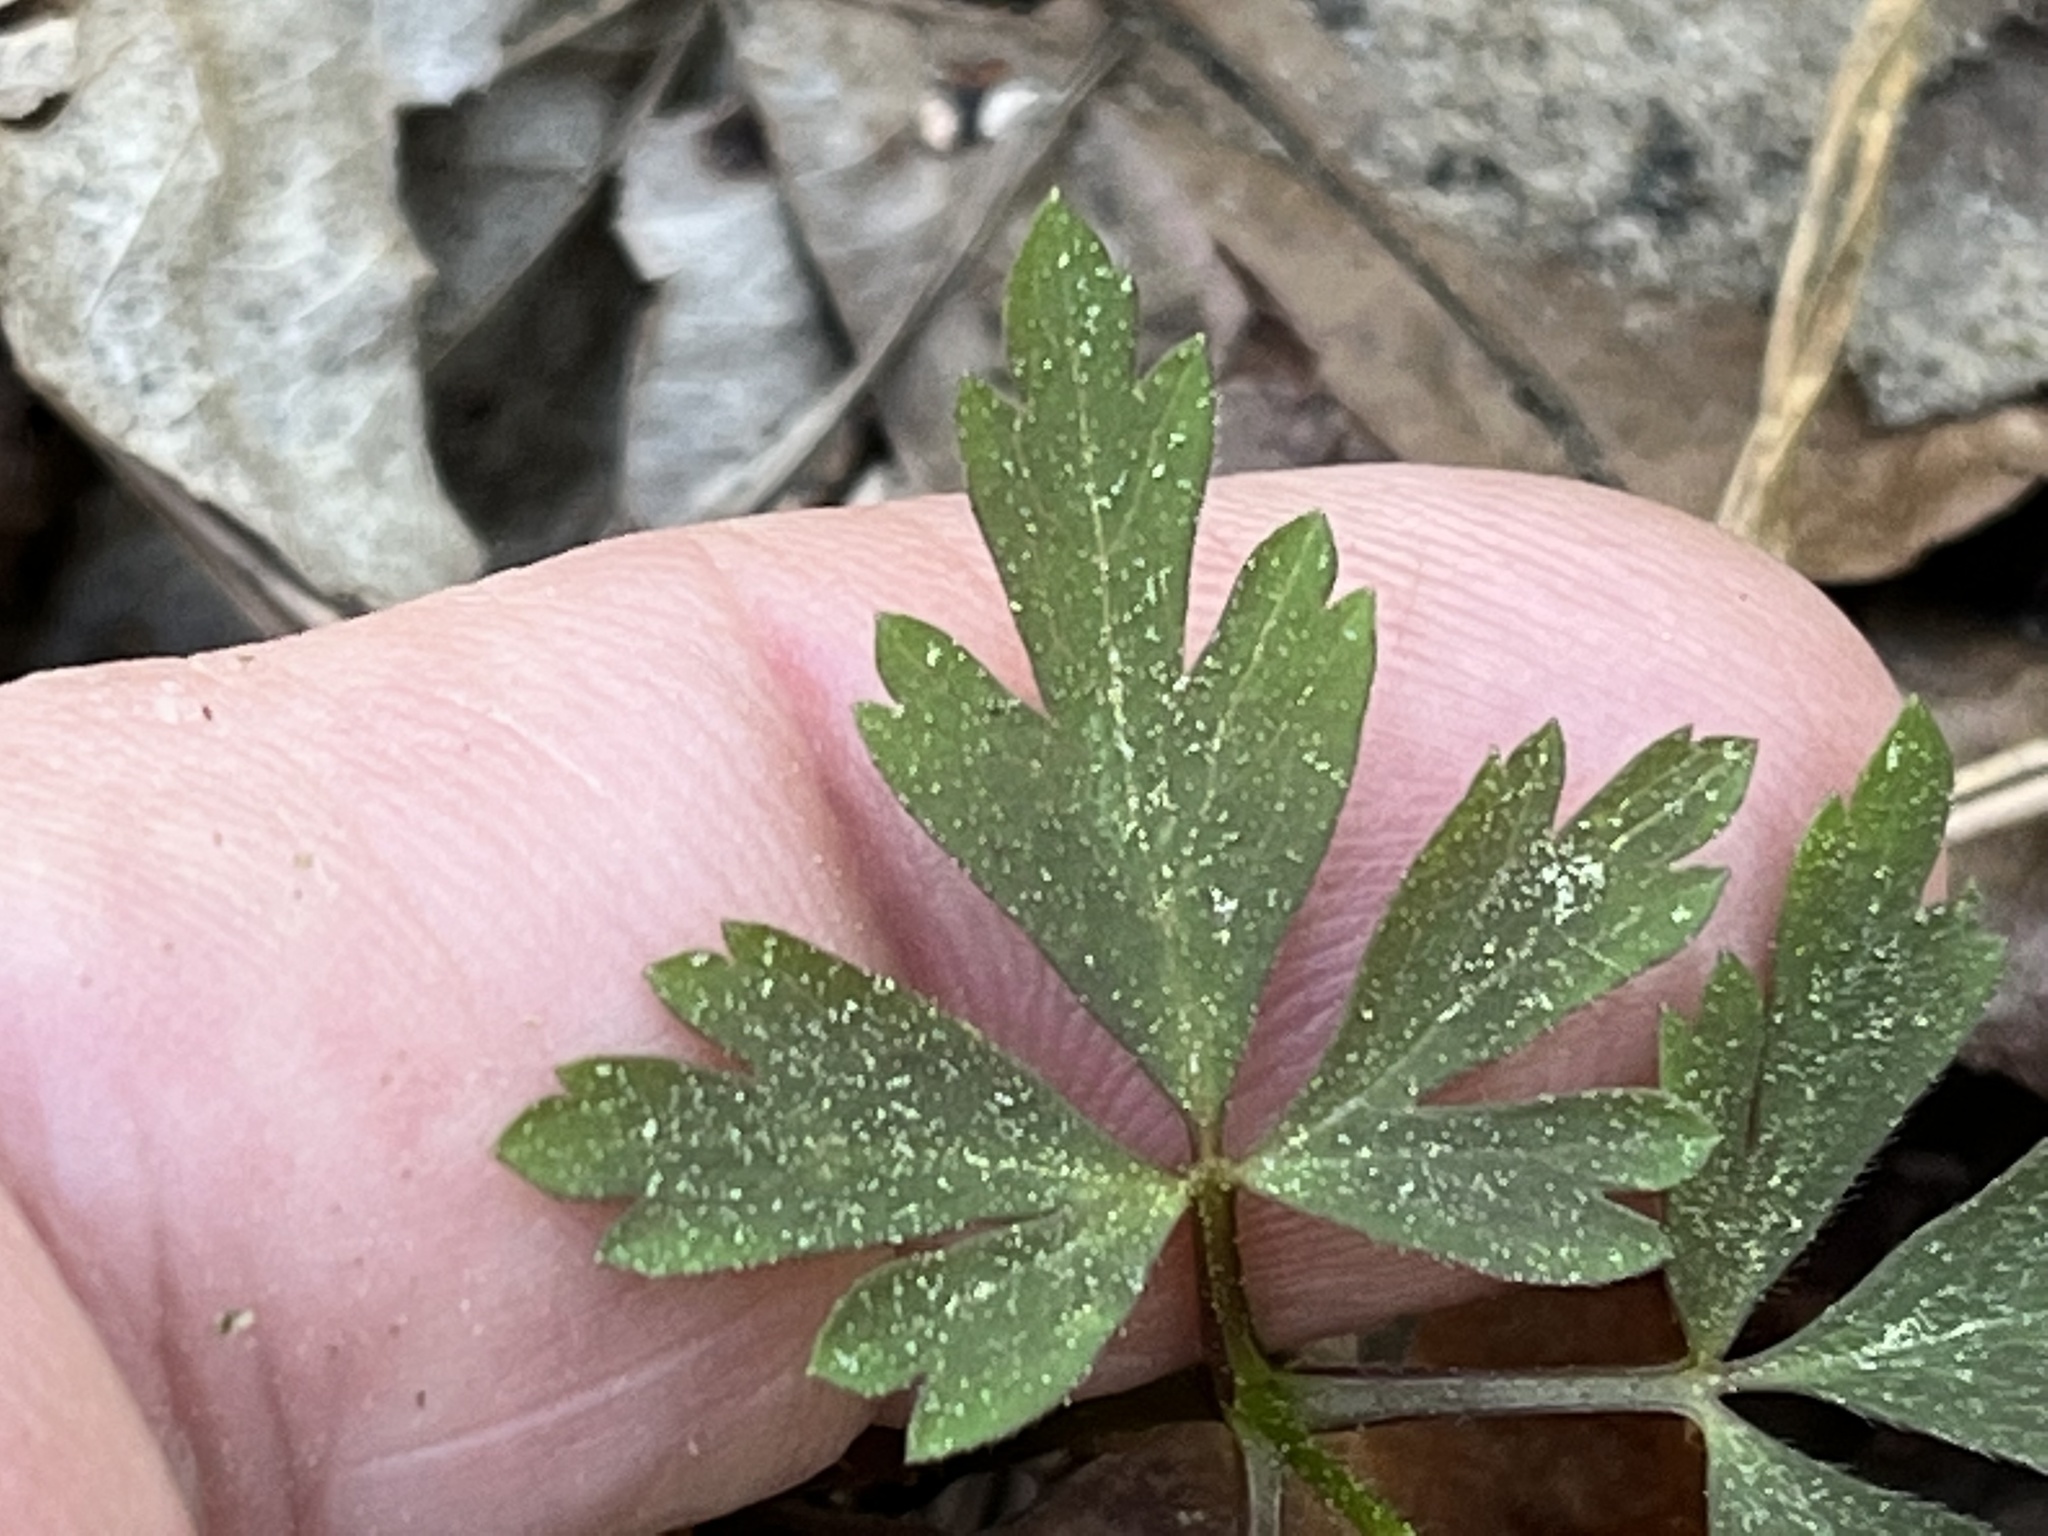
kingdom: Plantae
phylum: Tracheophyta
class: Magnoliopsida
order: Ranunculales
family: Ranunculaceae
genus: Anemone
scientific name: Anemone quinquefolia
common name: Wood anemone
